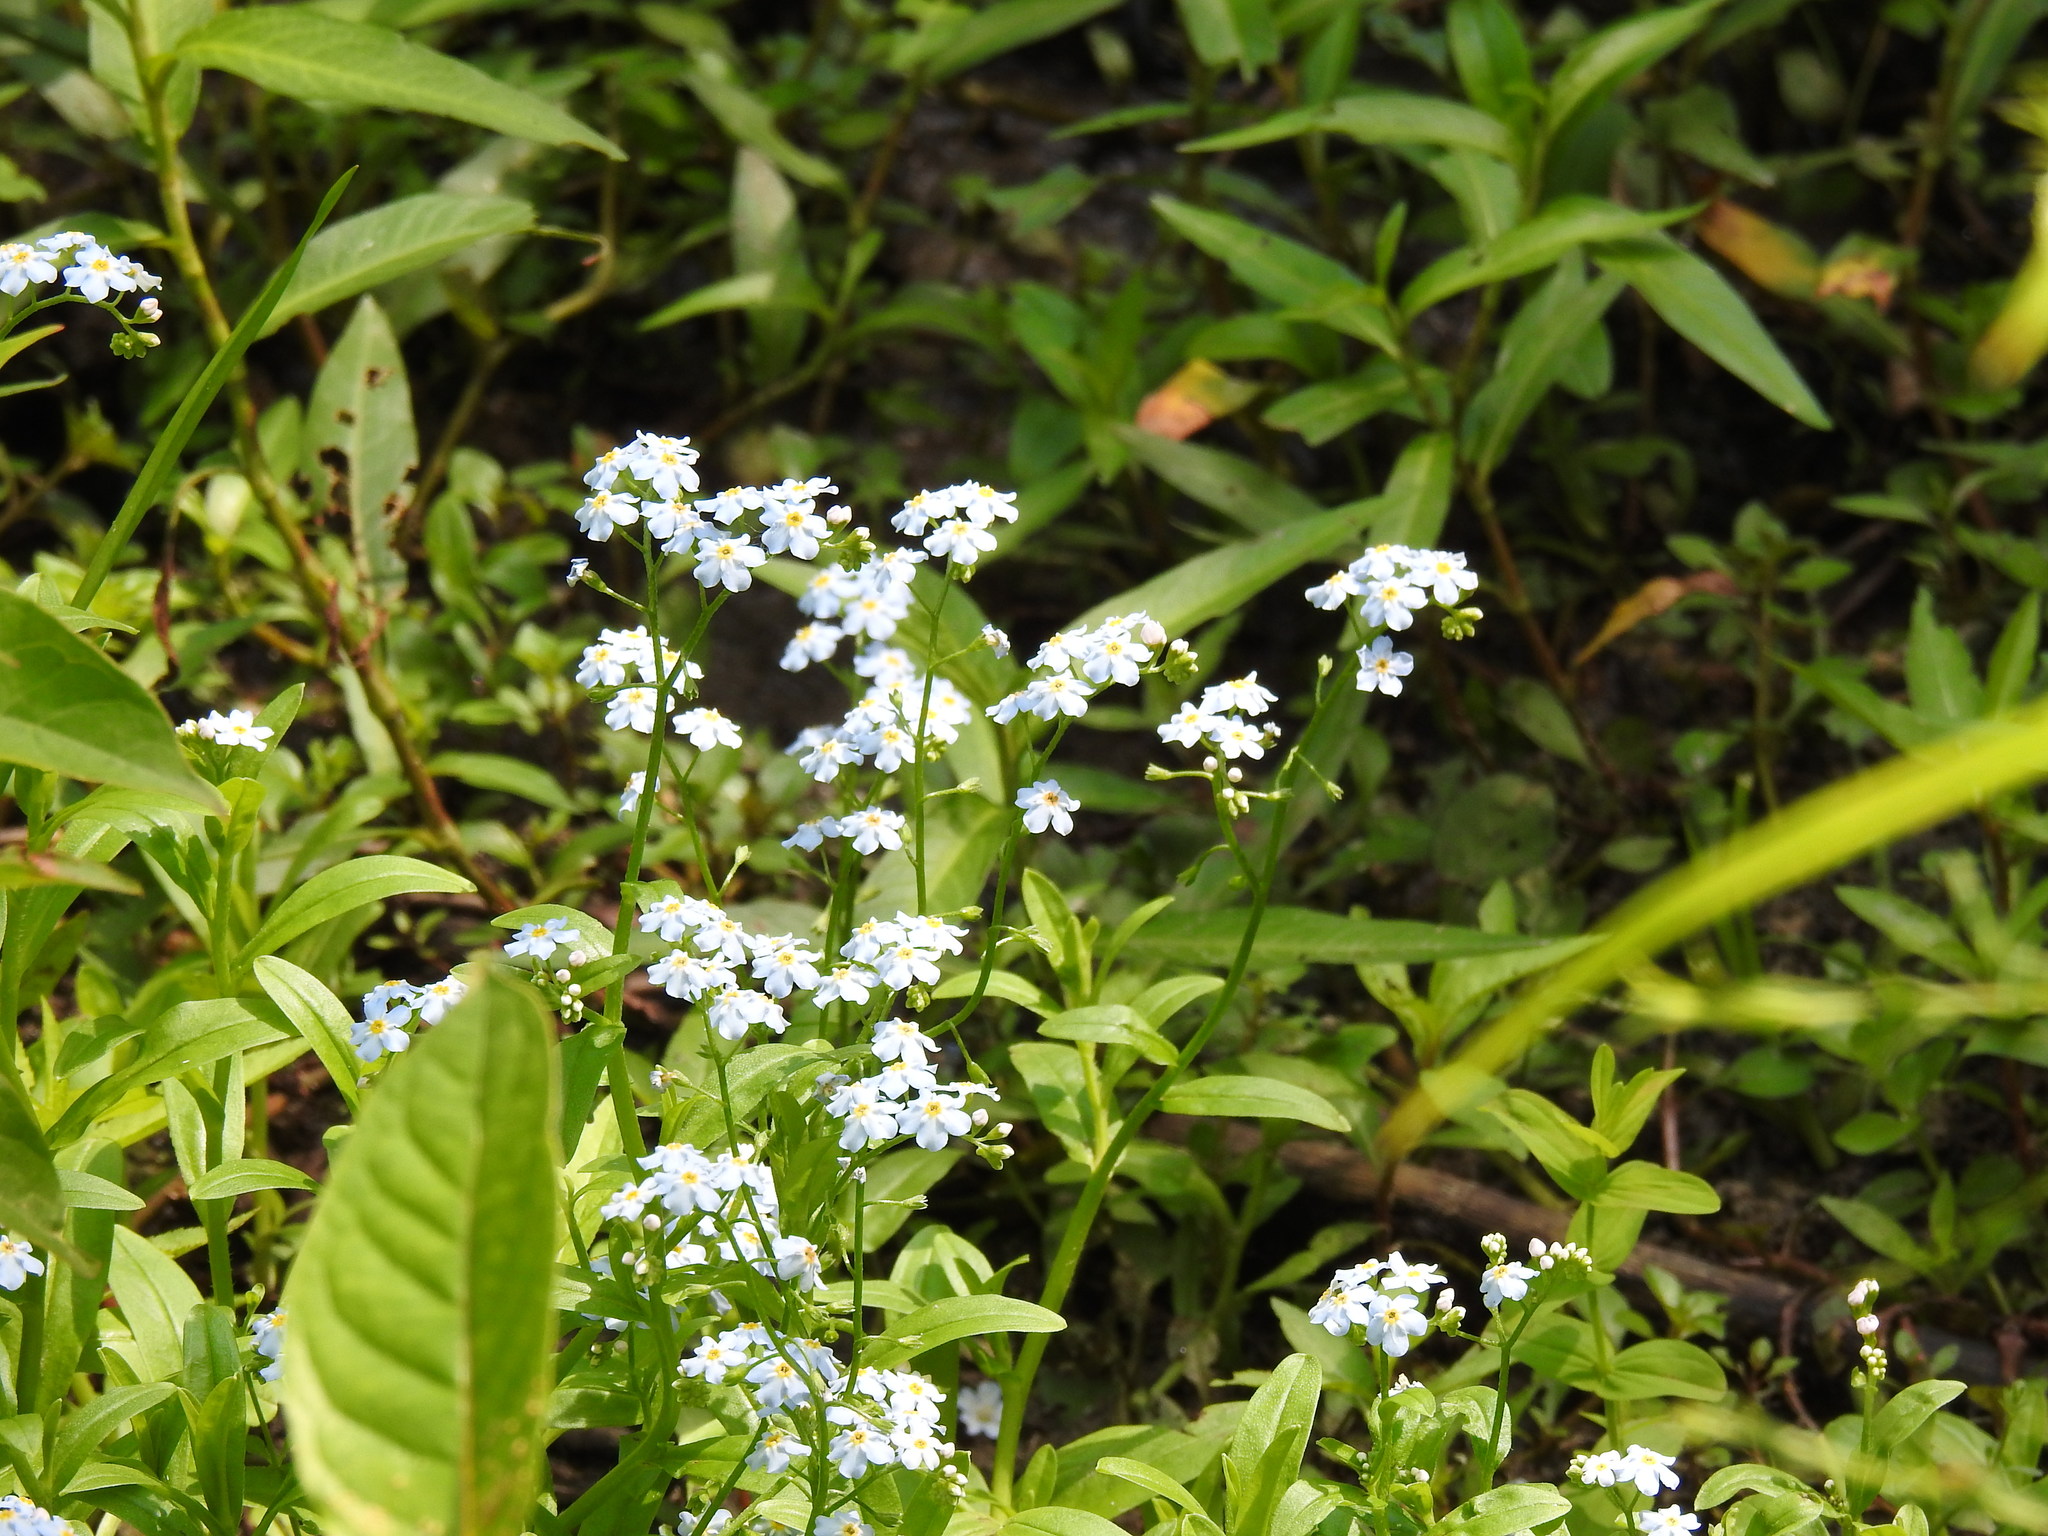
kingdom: Plantae
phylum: Tracheophyta
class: Magnoliopsida
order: Boraginales
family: Boraginaceae
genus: Myosotis
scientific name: Myosotis scorpioides
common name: Water forget-me-not
